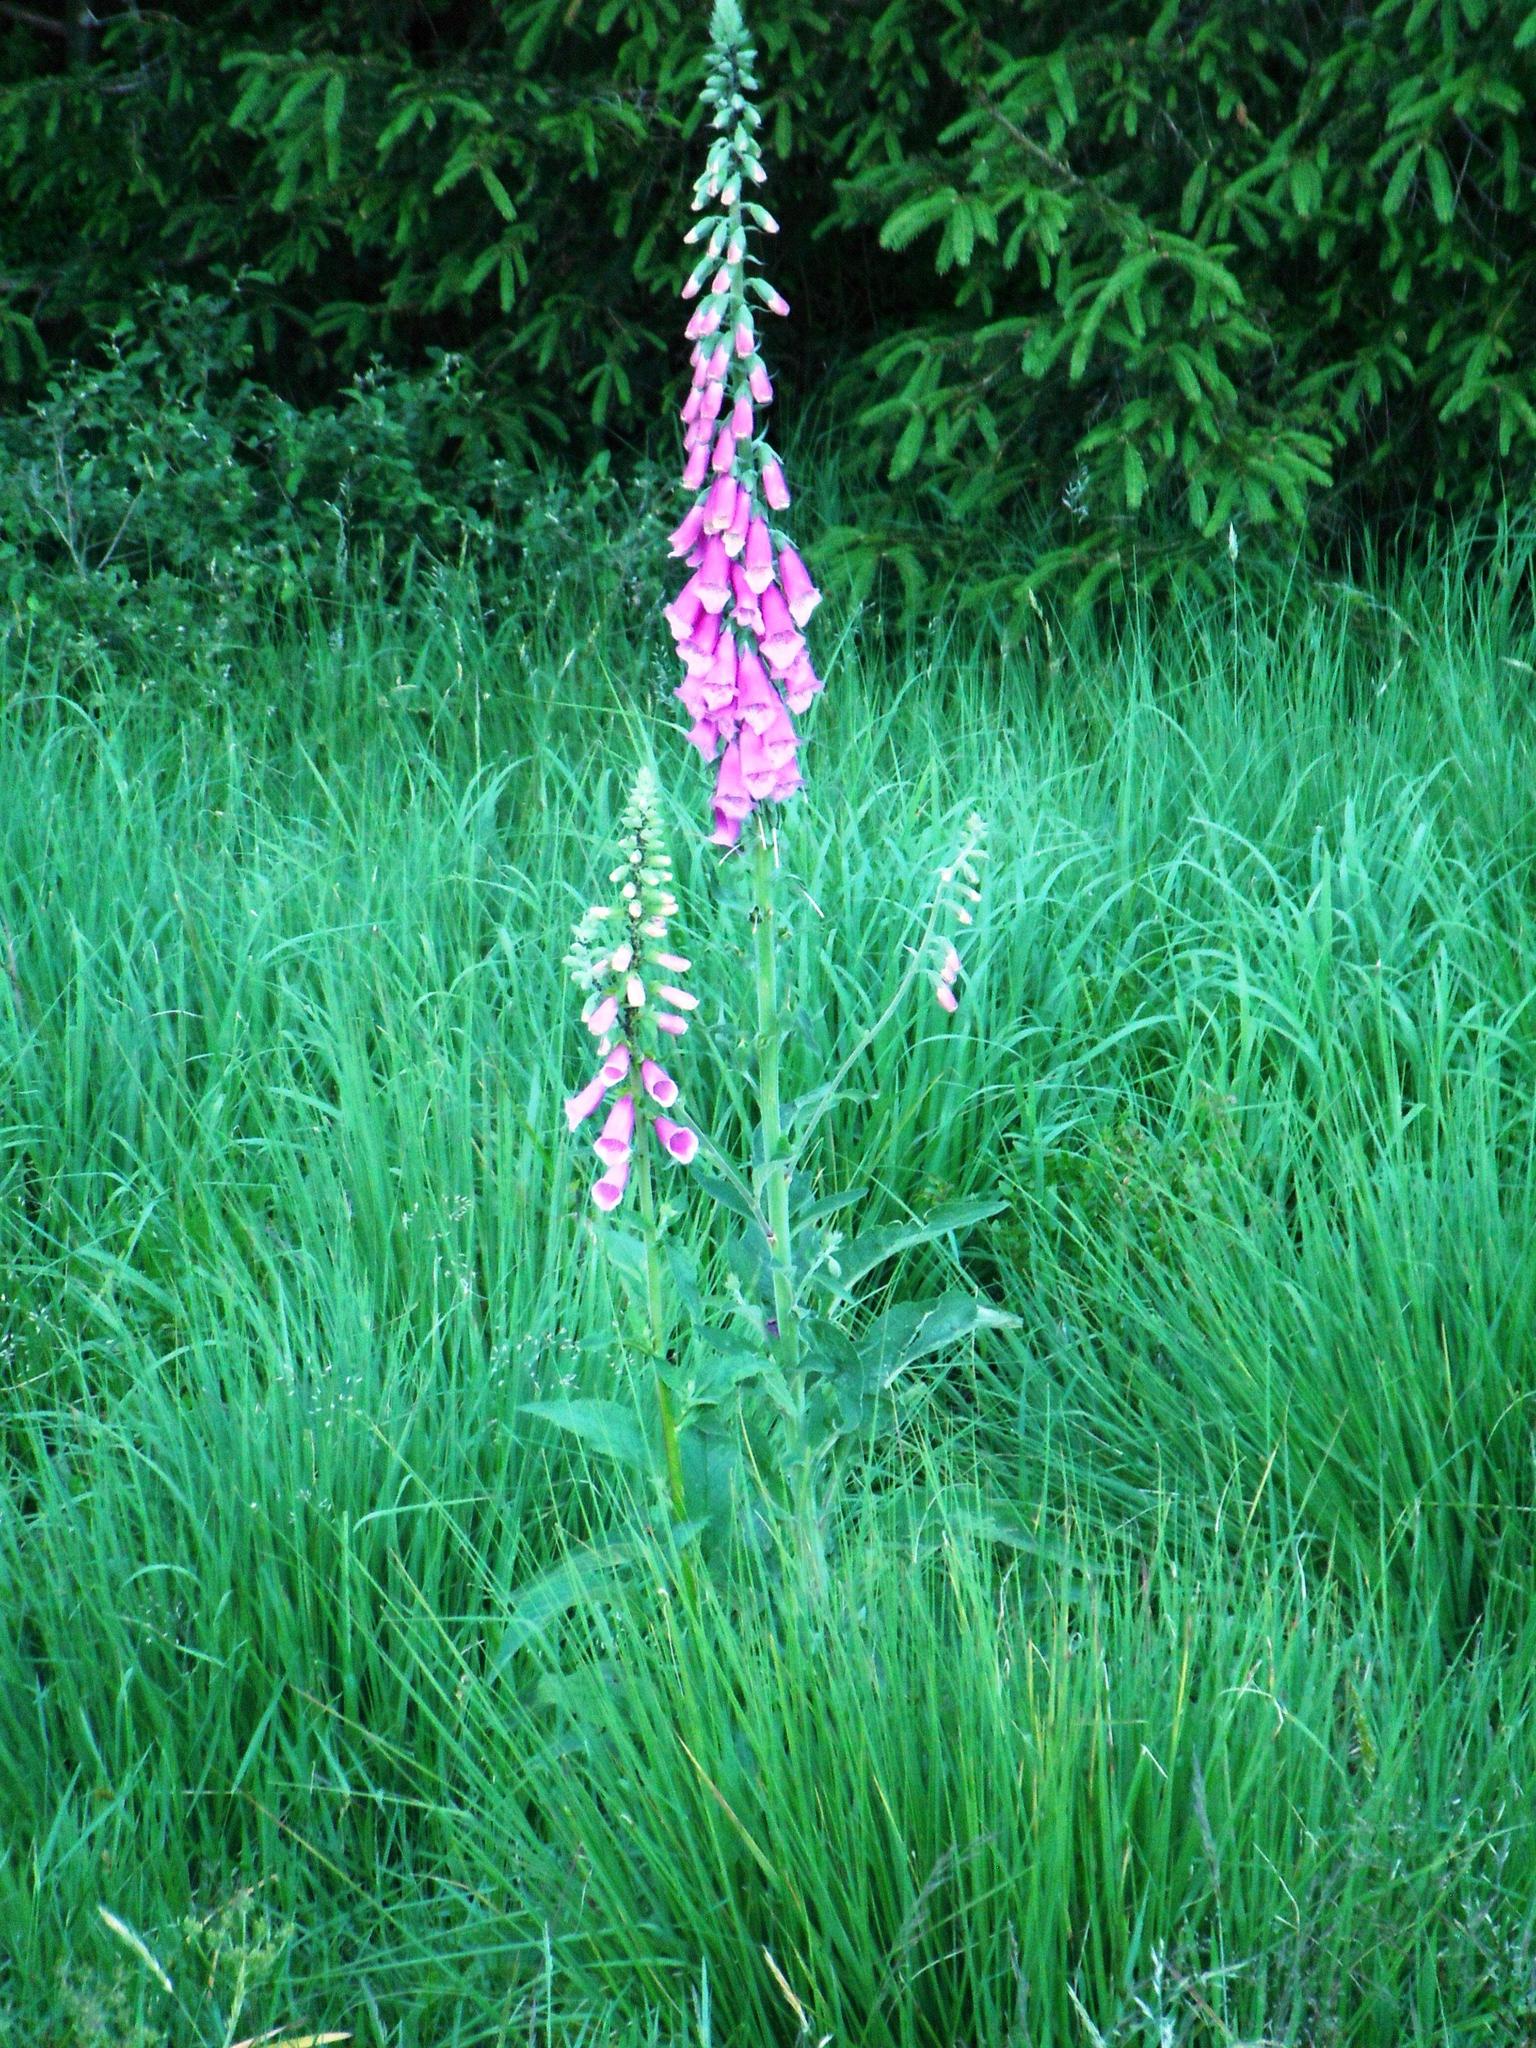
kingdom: Plantae
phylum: Tracheophyta
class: Magnoliopsida
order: Lamiales
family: Plantaginaceae
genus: Digitalis
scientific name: Digitalis purpurea
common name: Foxglove
